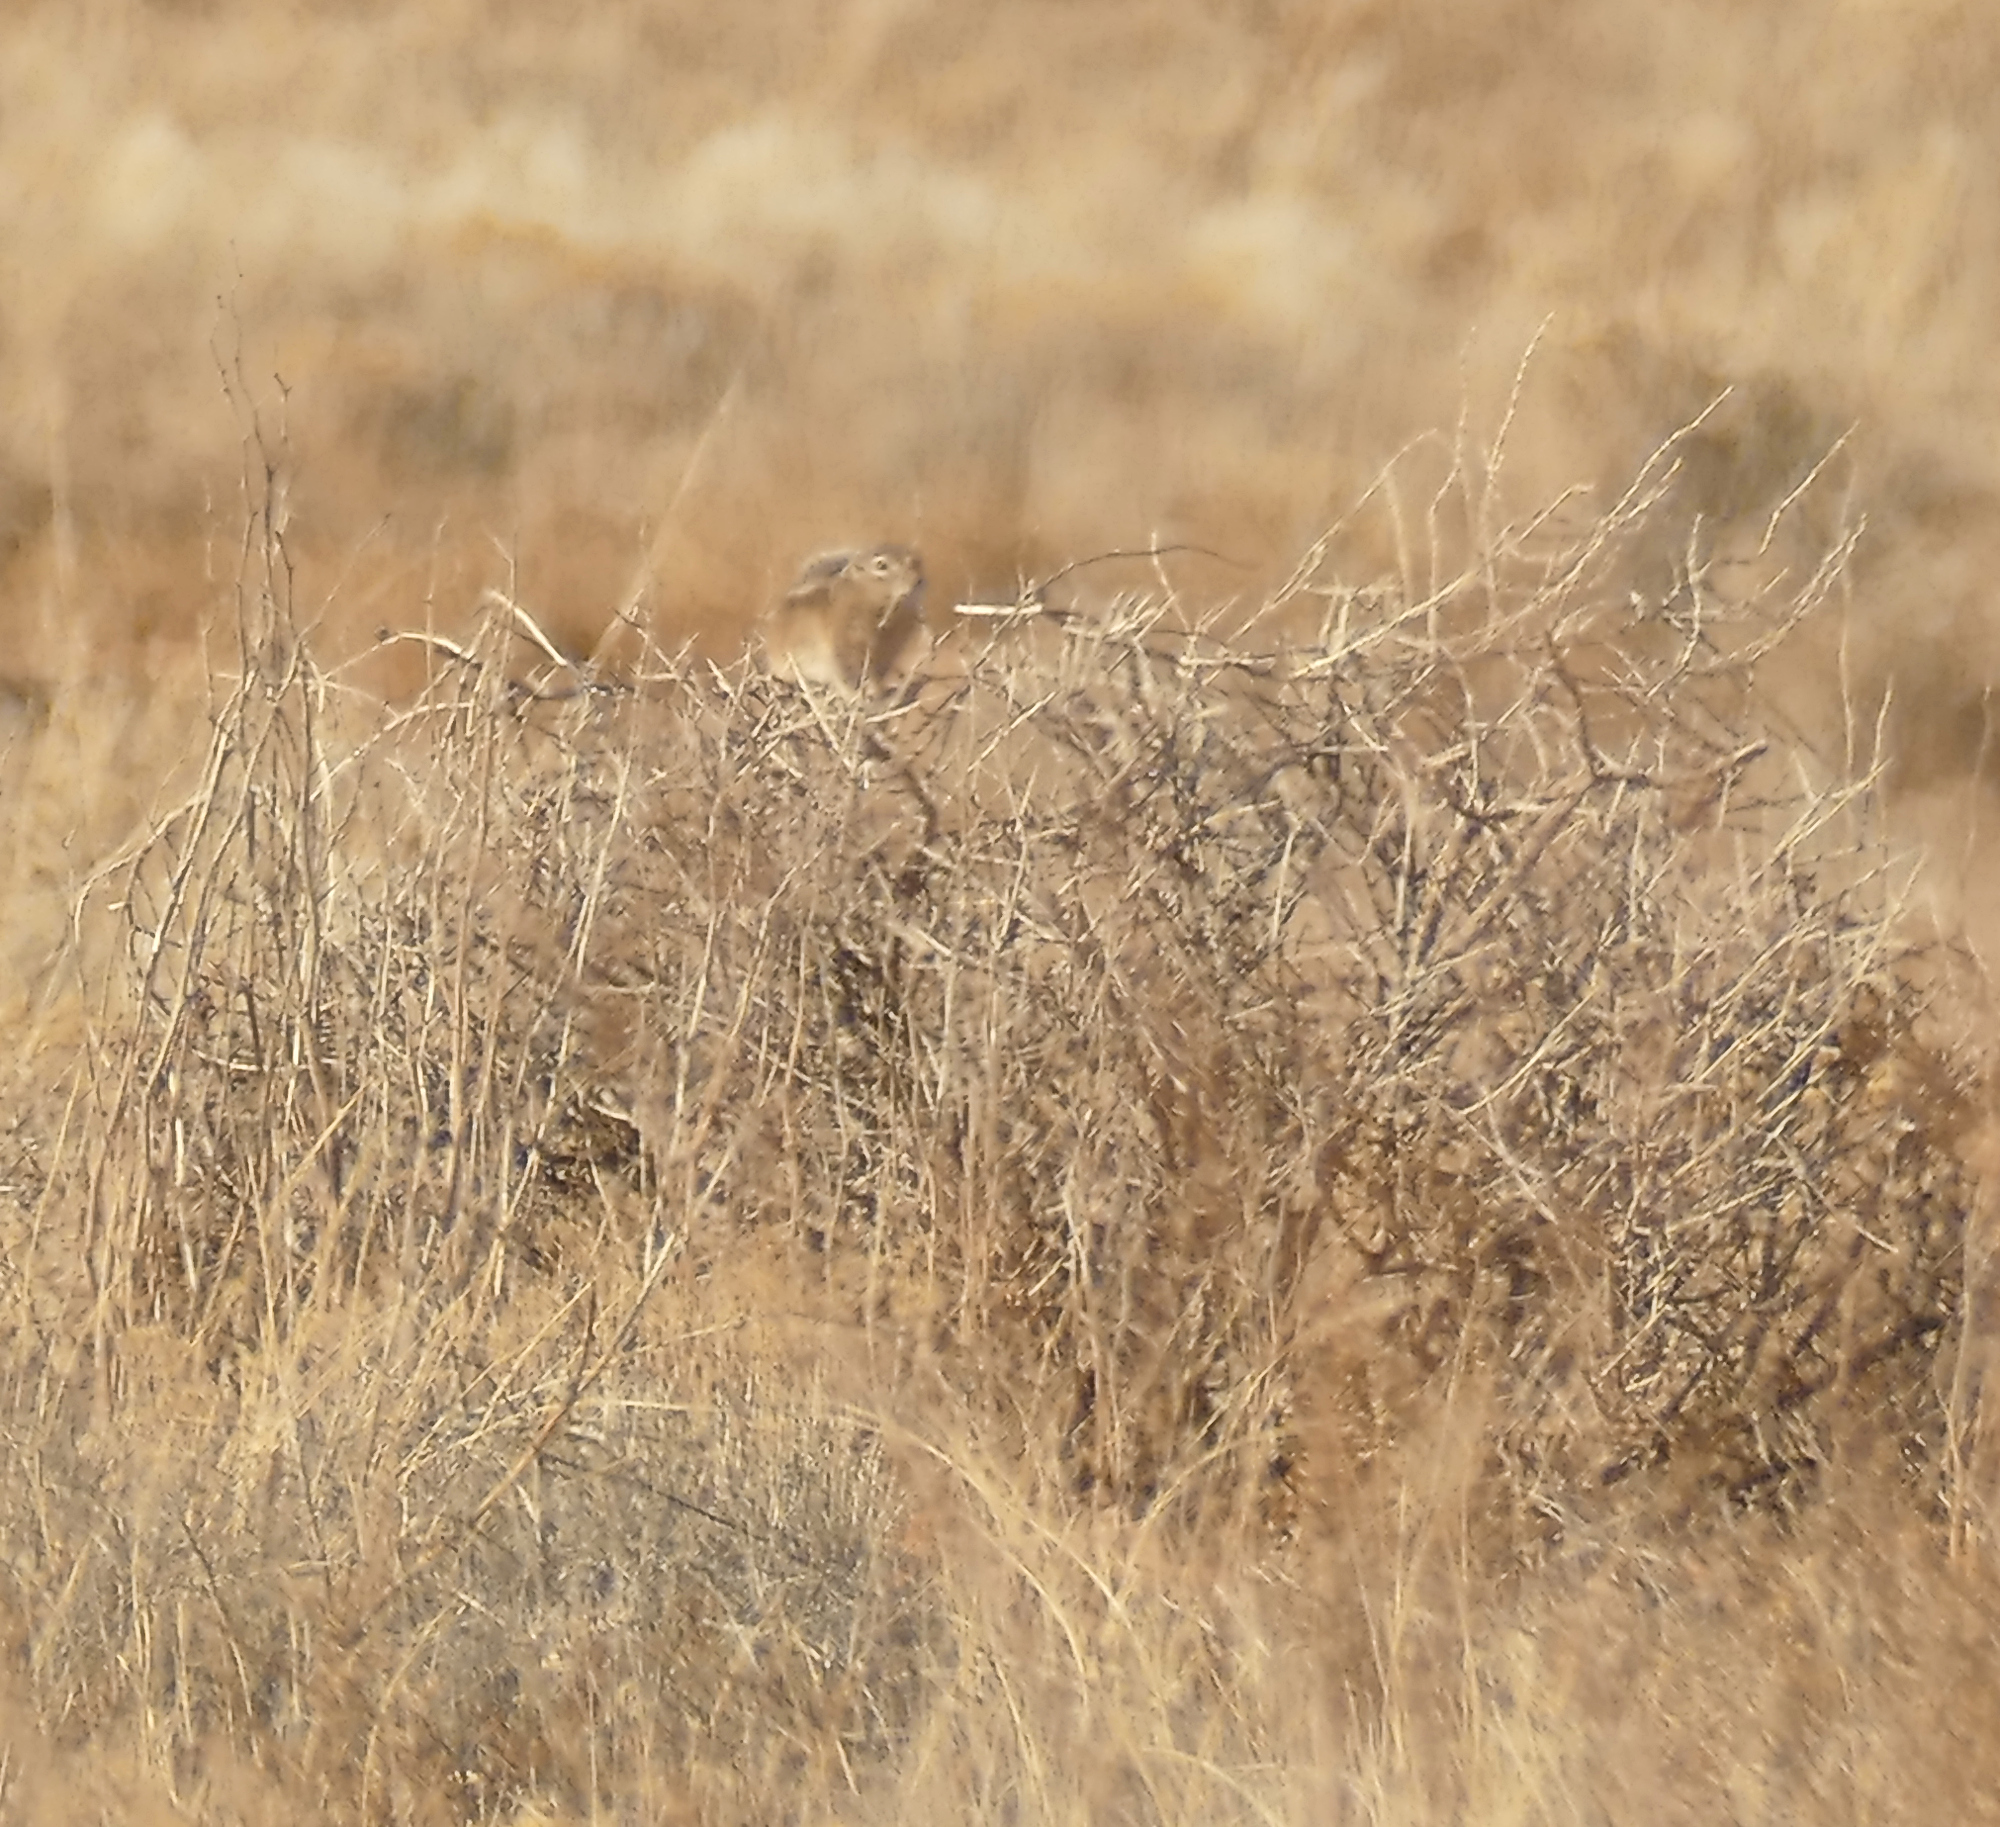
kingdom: Animalia
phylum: Chordata
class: Mammalia
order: Rodentia
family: Sciuridae
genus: Ammospermophilus
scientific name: Ammospermophilus leucurus
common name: White-tailed antelope squirrel
